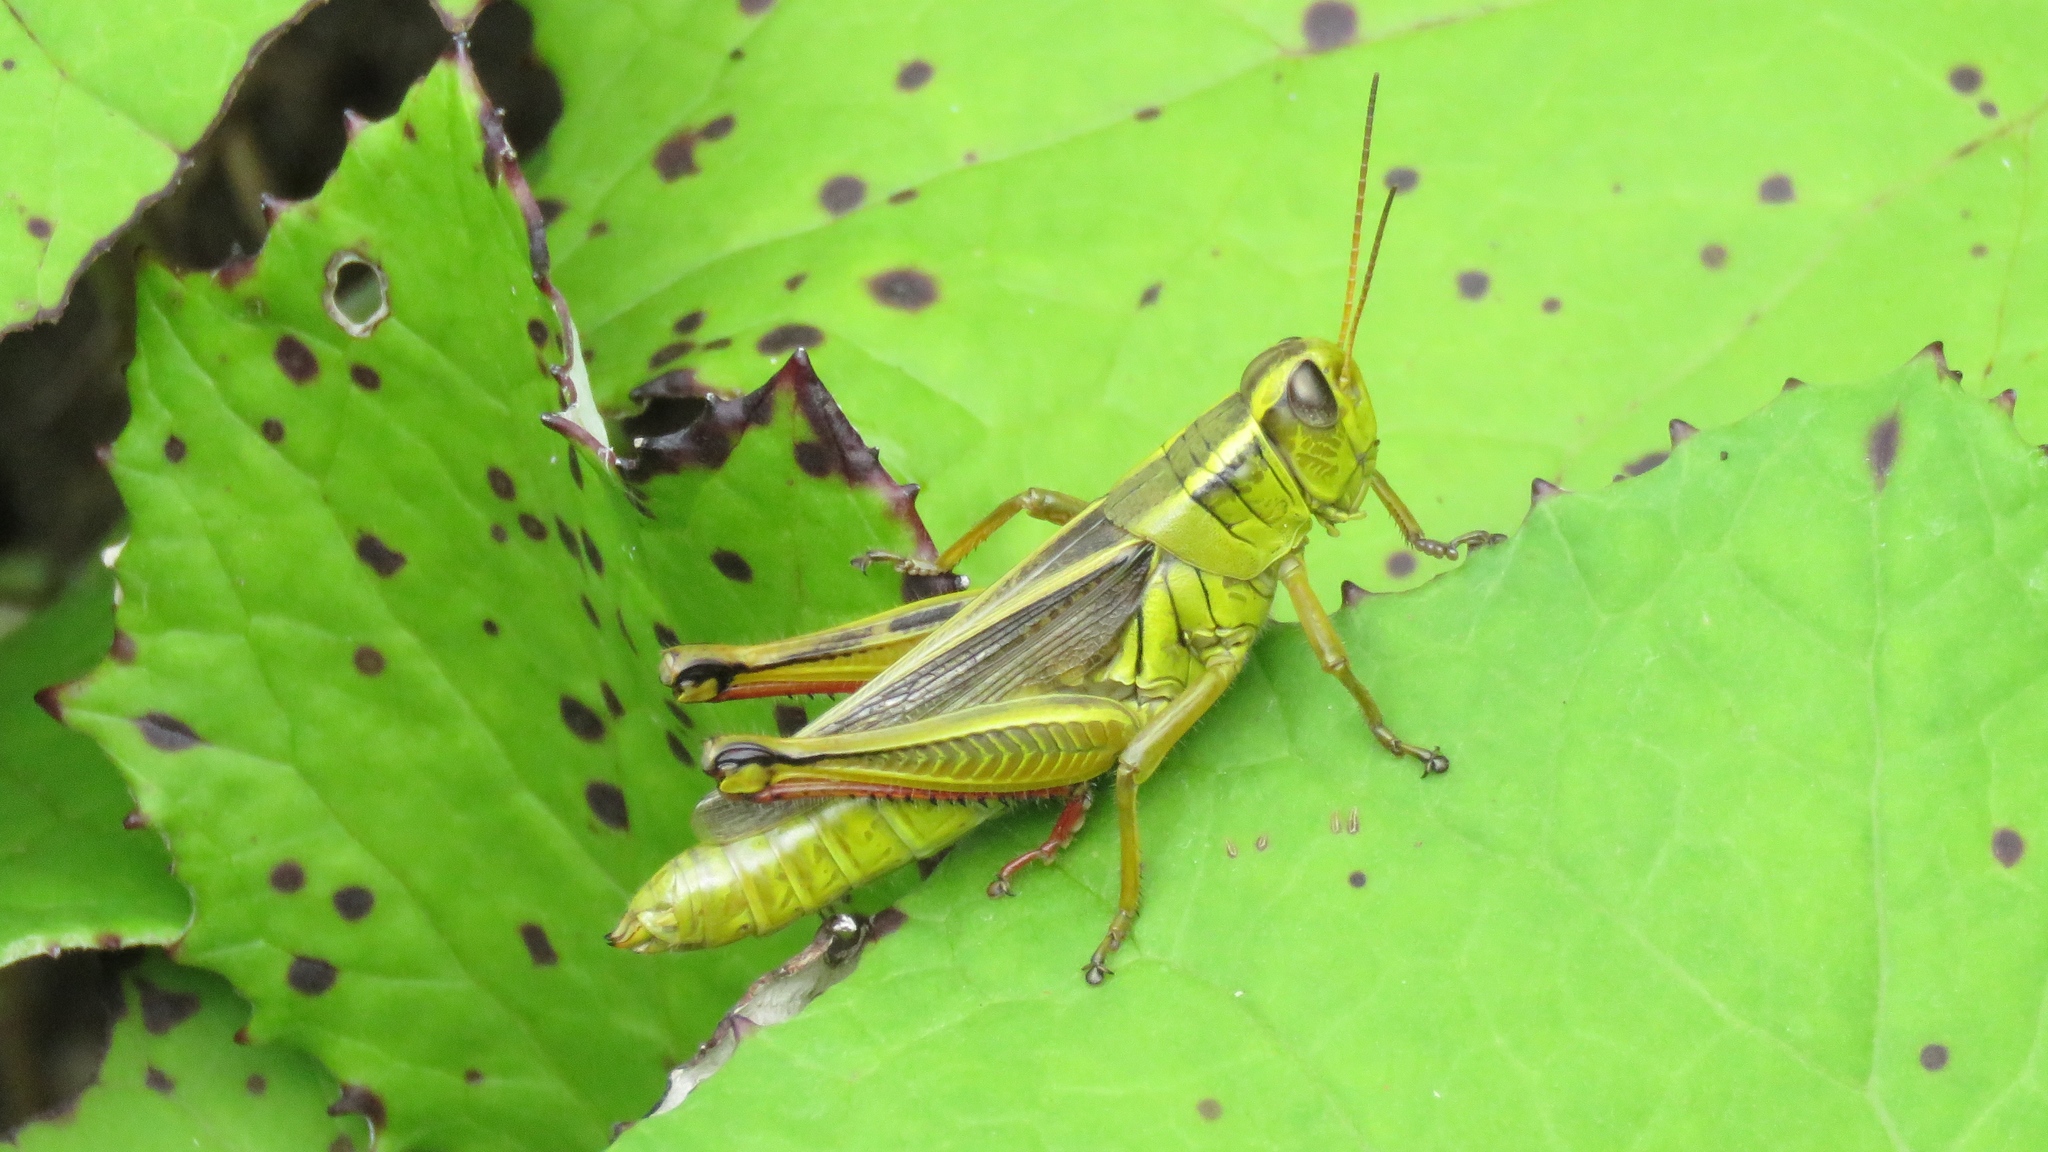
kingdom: Animalia
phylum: Arthropoda
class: Insecta
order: Orthoptera
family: Acrididae
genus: Melanoplus
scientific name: Melanoplus bivittatus
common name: Two-striped grasshopper
